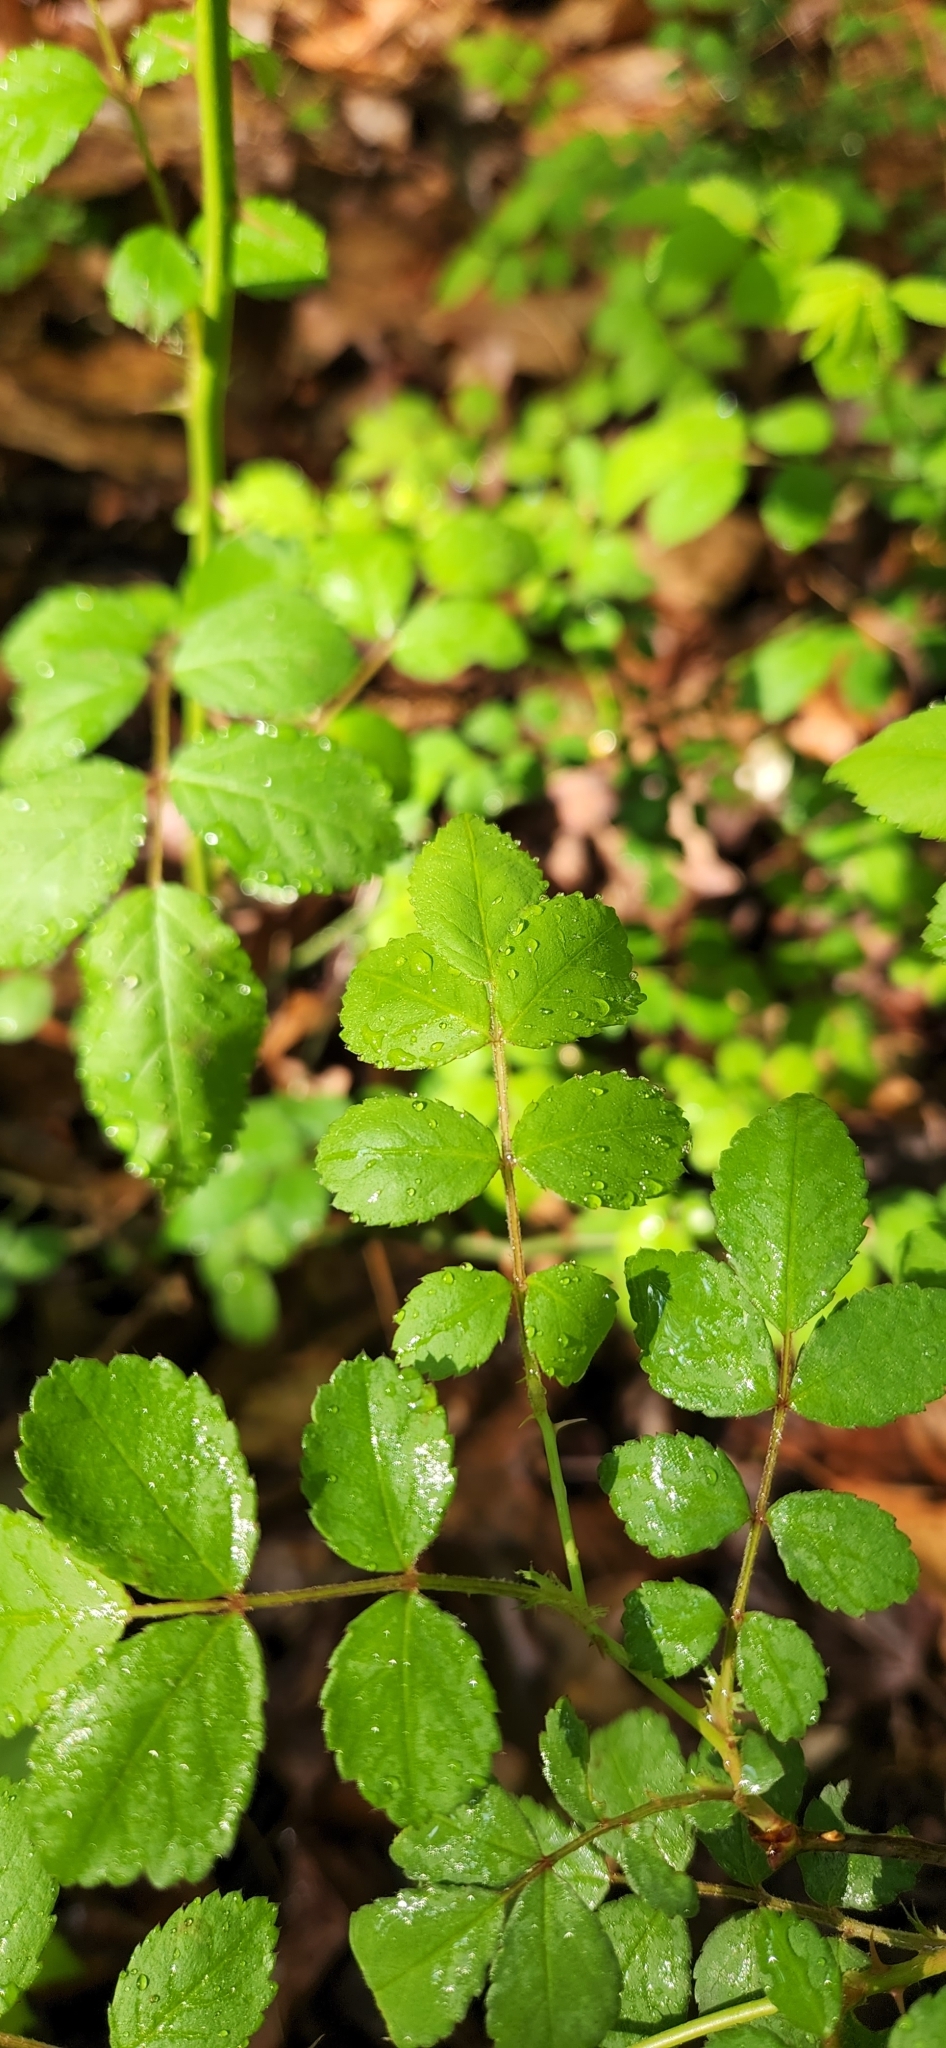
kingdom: Plantae
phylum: Tracheophyta
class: Magnoliopsida
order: Rosales
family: Rosaceae
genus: Rosa
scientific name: Rosa multiflora
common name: Multiflora rose
